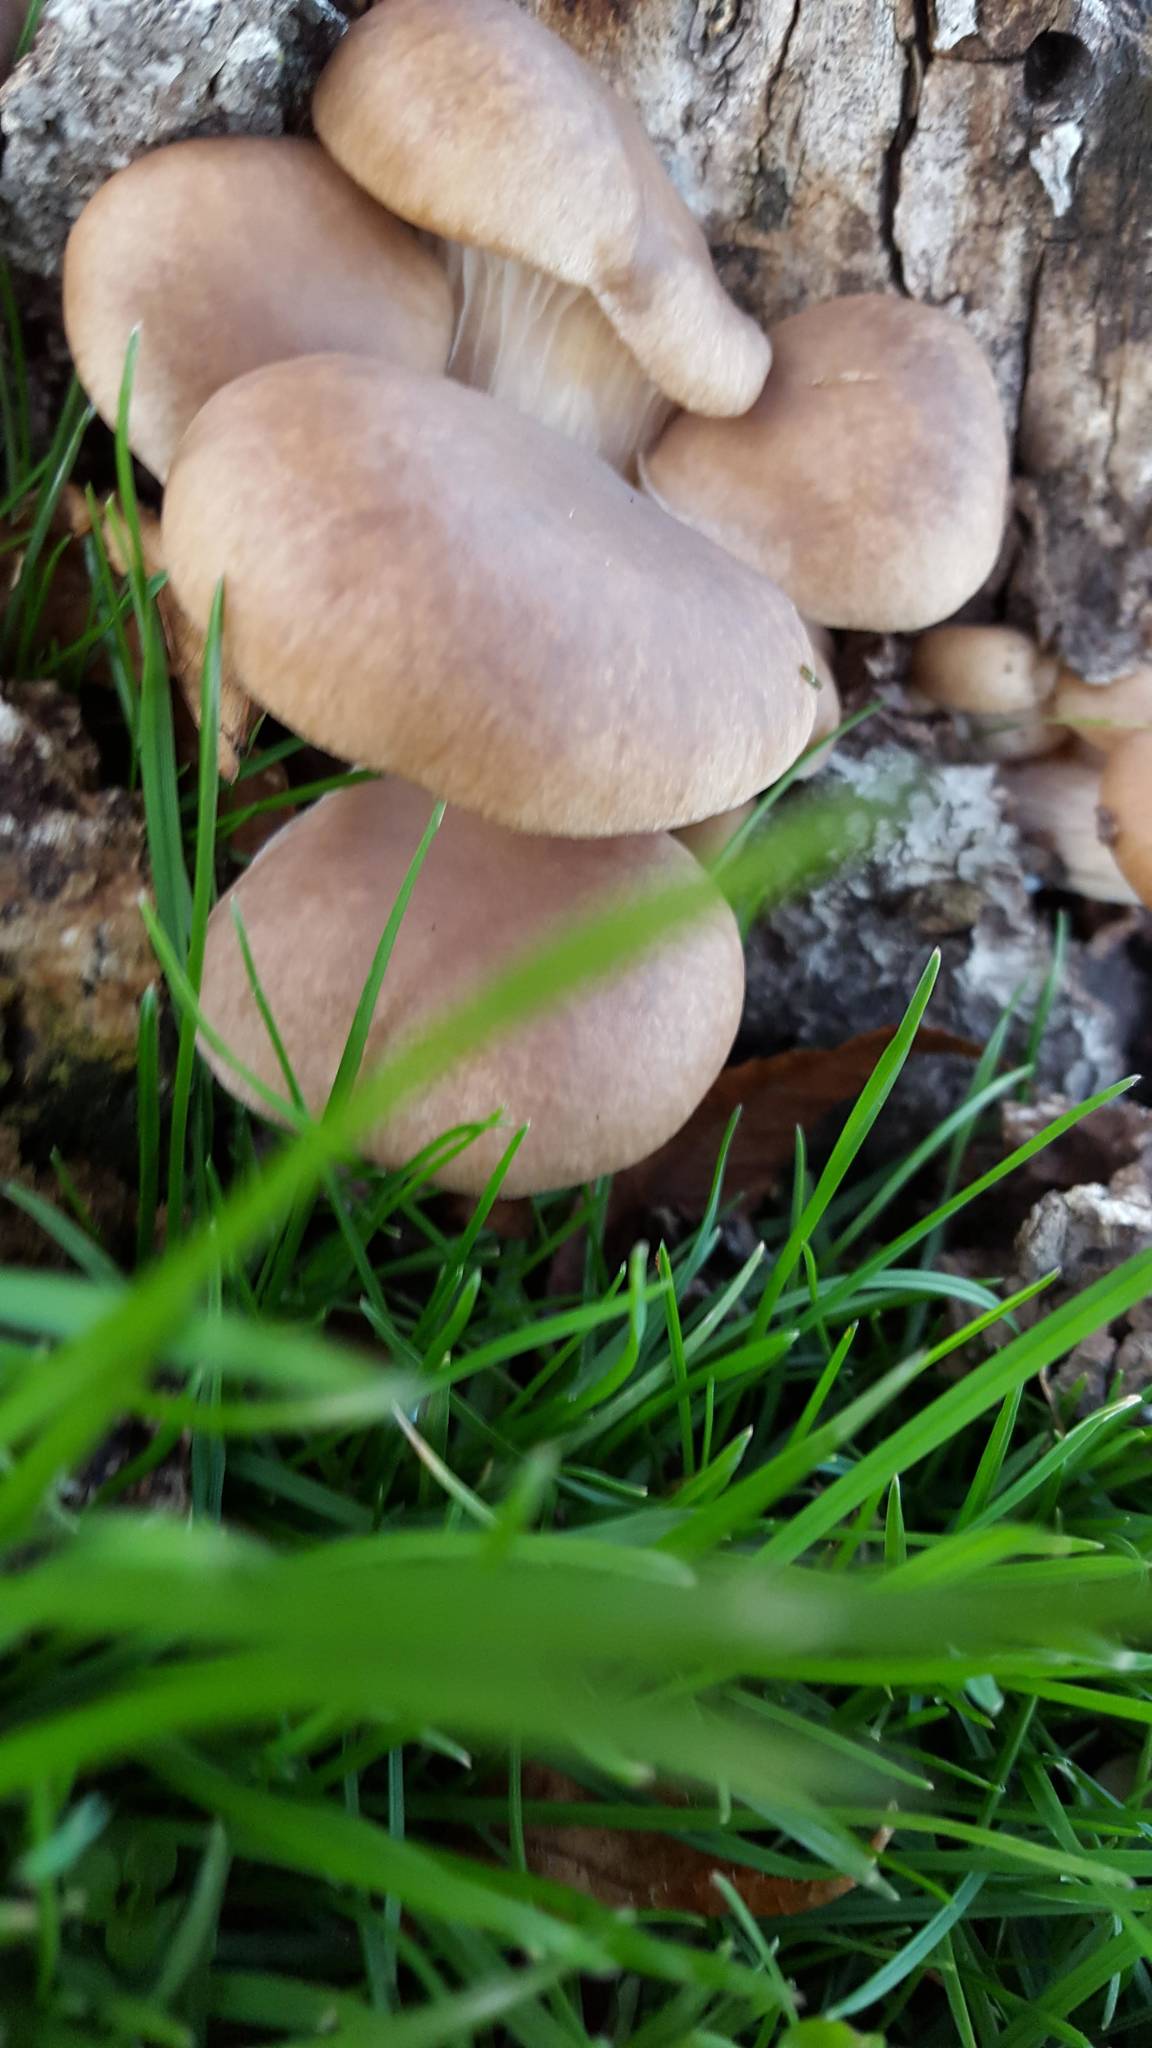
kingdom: Fungi
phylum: Basidiomycota
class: Agaricomycetes
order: Agaricales
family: Pleurotaceae
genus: Pleurotus
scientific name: Pleurotus
